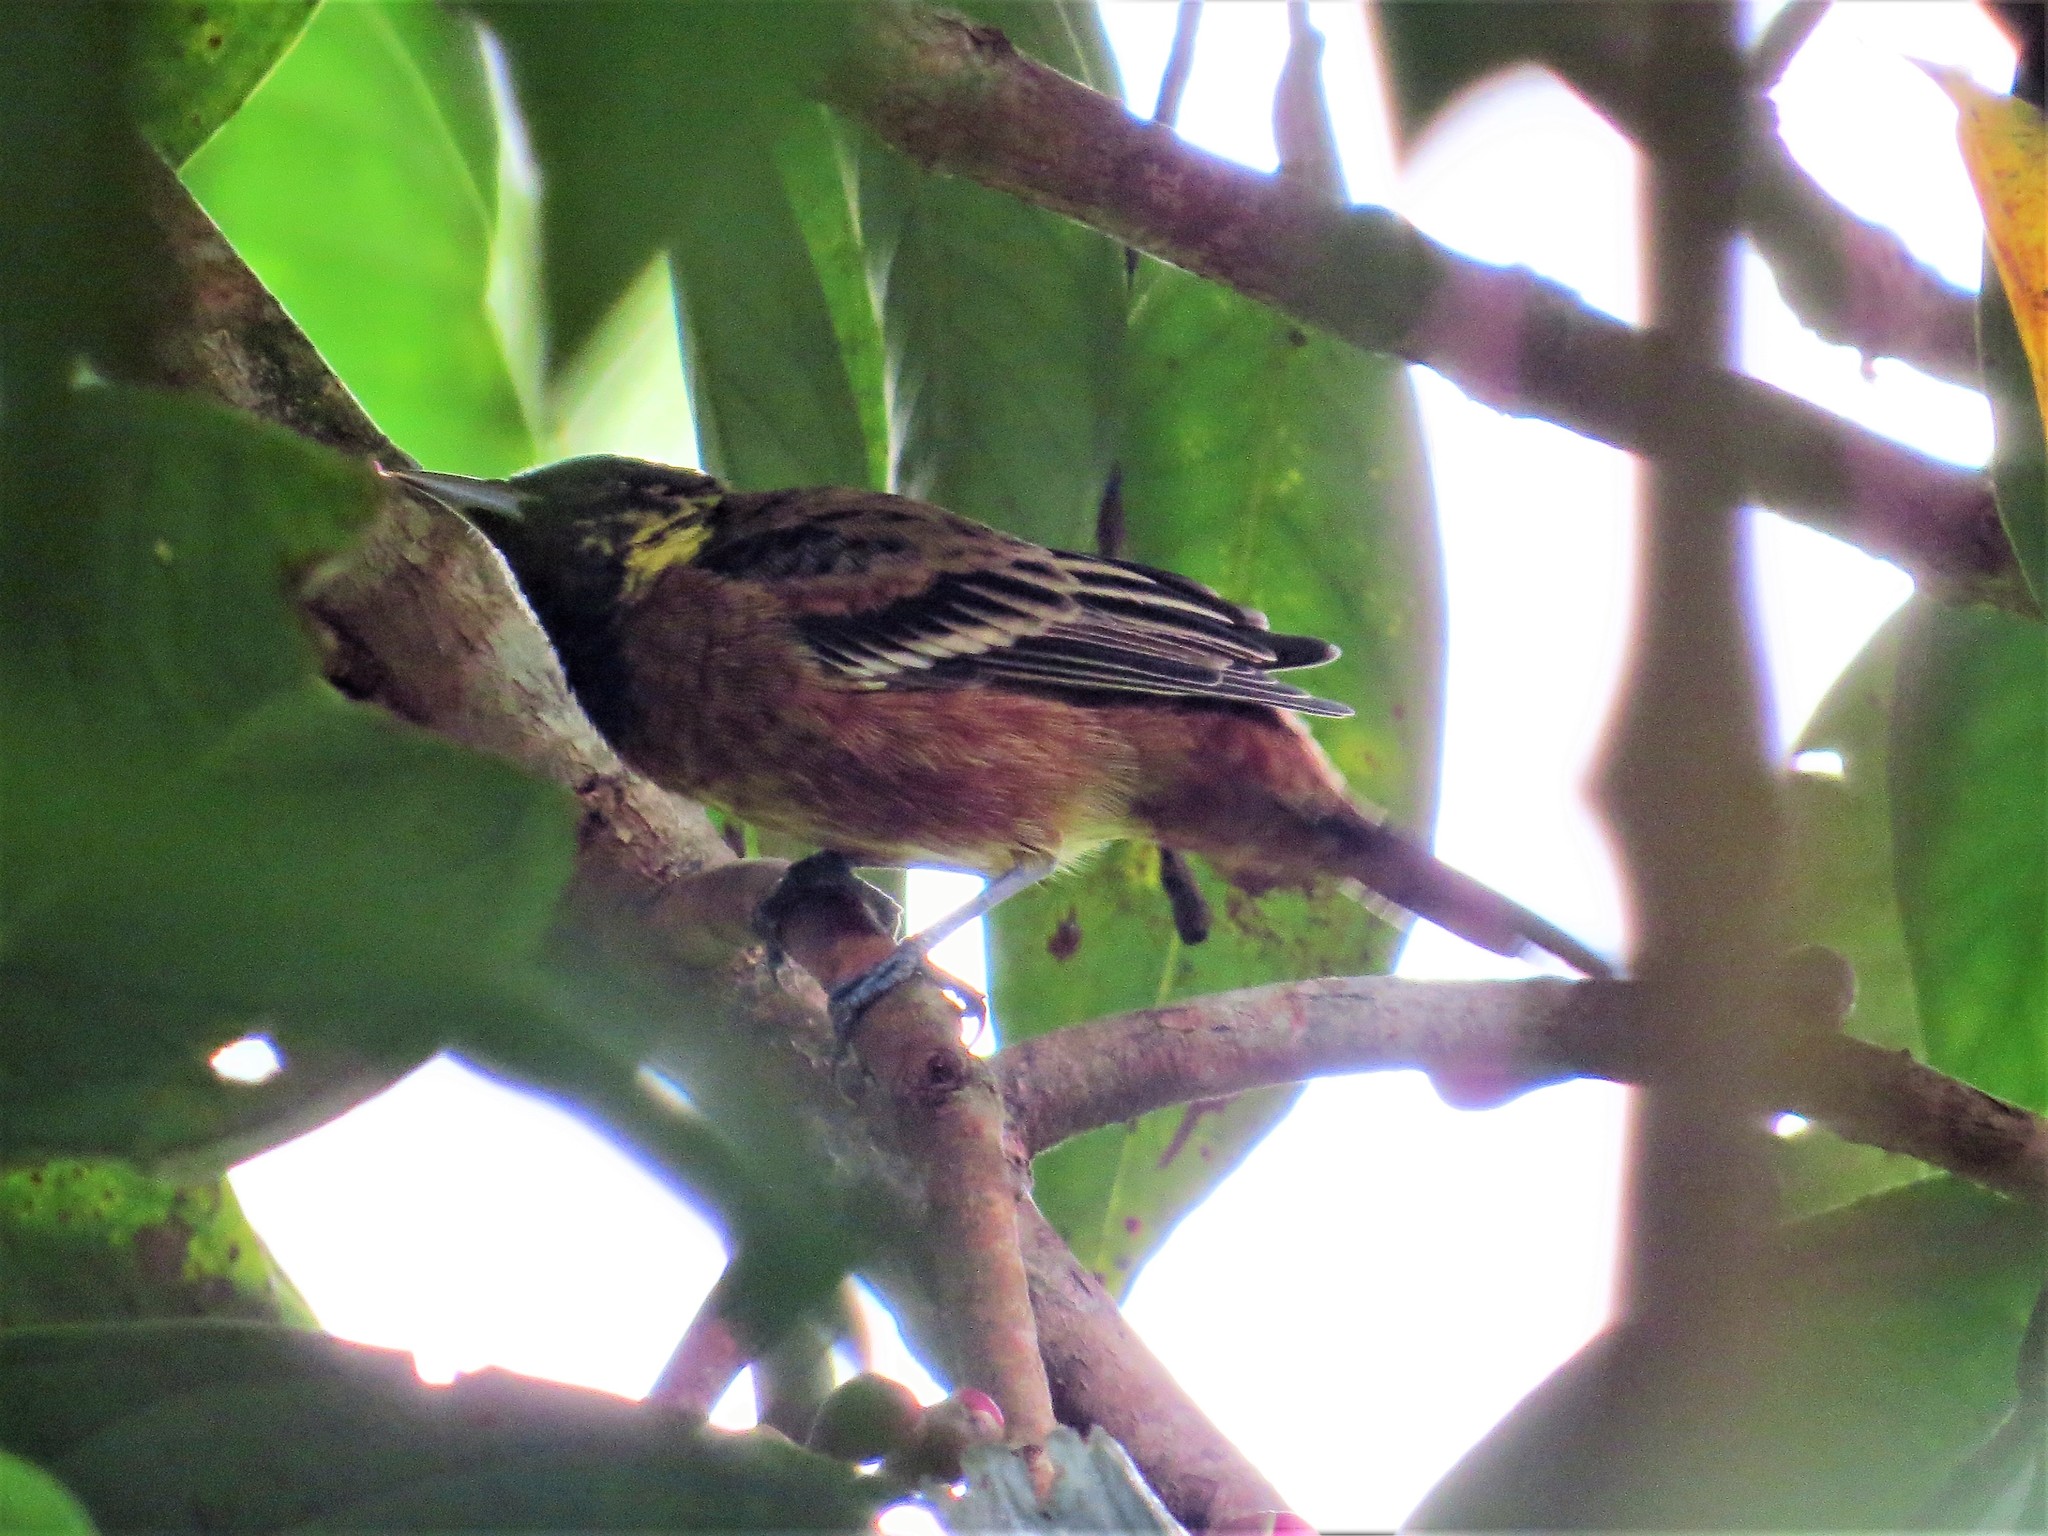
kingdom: Animalia
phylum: Chordata
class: Aves
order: Passeriformes
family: Icteridae
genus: Icterus
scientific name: Icterus spurius
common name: Orchard oriole
